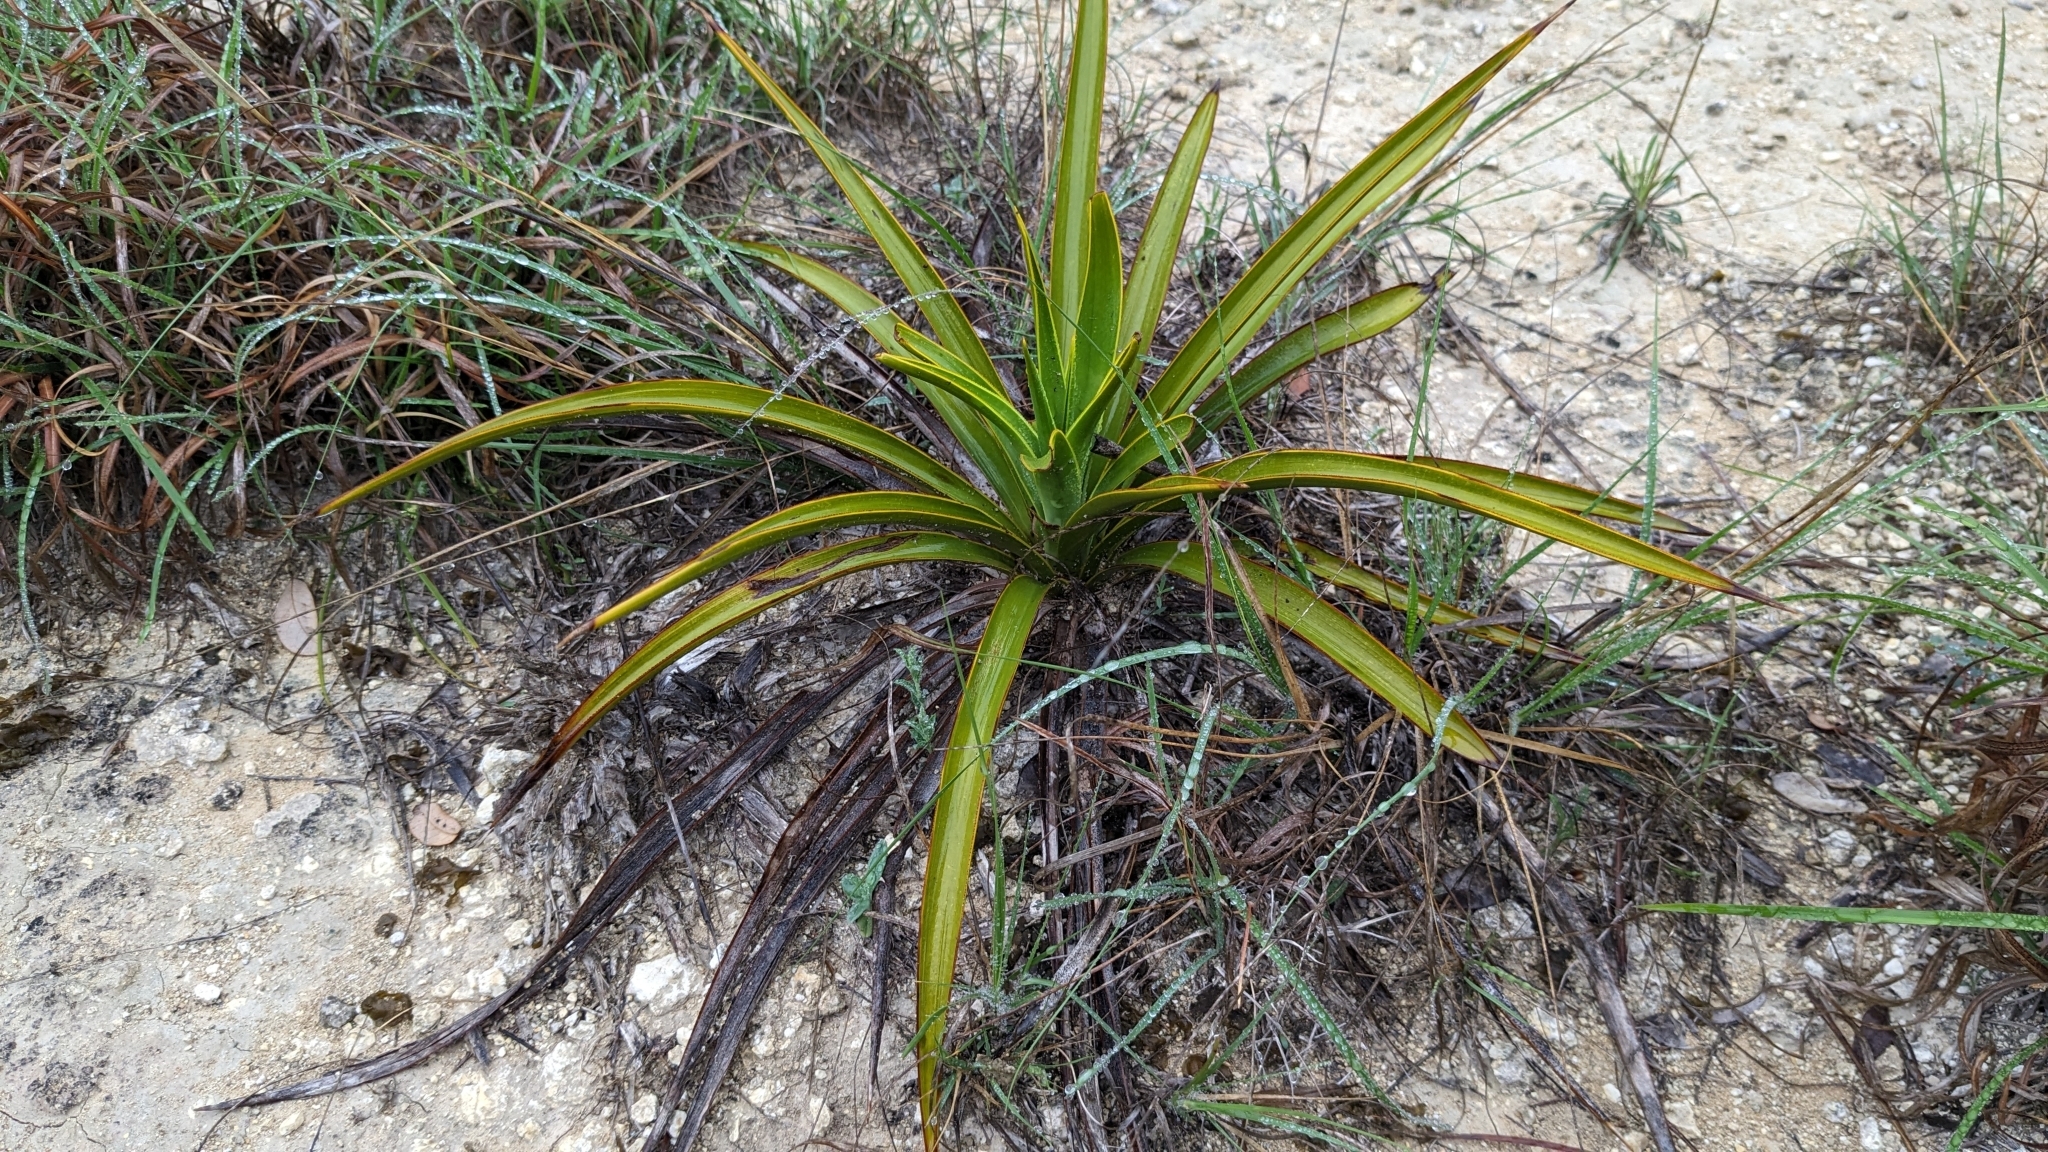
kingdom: Plantae
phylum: Tracheophyta
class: Liliopsida
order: Asparagales
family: Asparagaceae
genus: Yucca
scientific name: Yucca rupicola
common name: Twisted-leaf spanish-dagger
